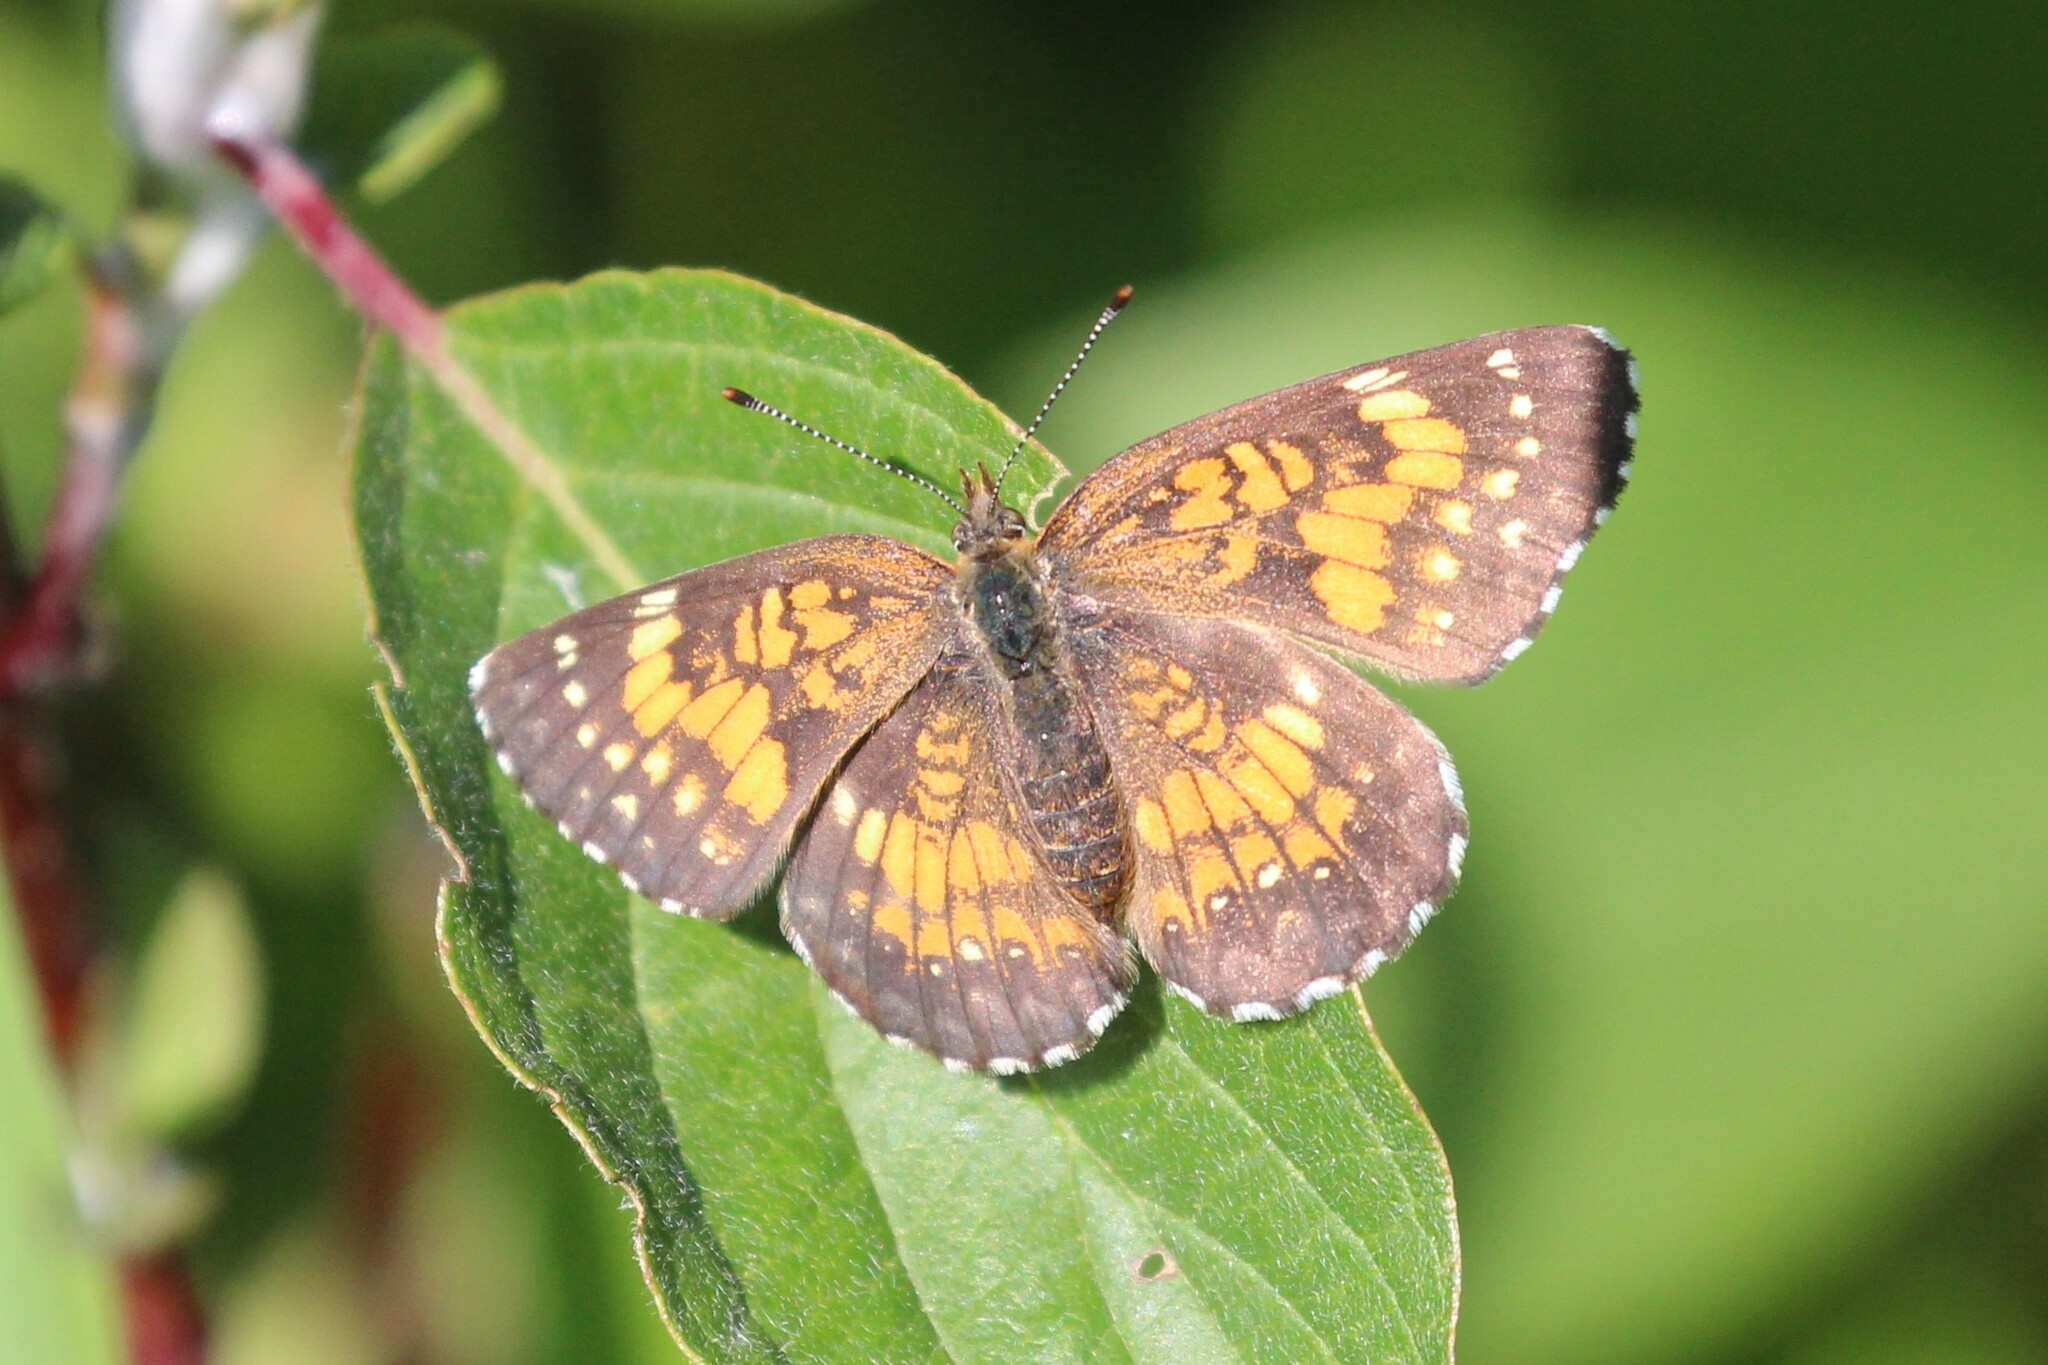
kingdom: Animalia
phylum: Arthropoda
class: Insecta
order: Lepidoptera
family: Nymphalidae
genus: Chlosyne
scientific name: Chlosyne harrisii
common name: Harris's checkerspot
